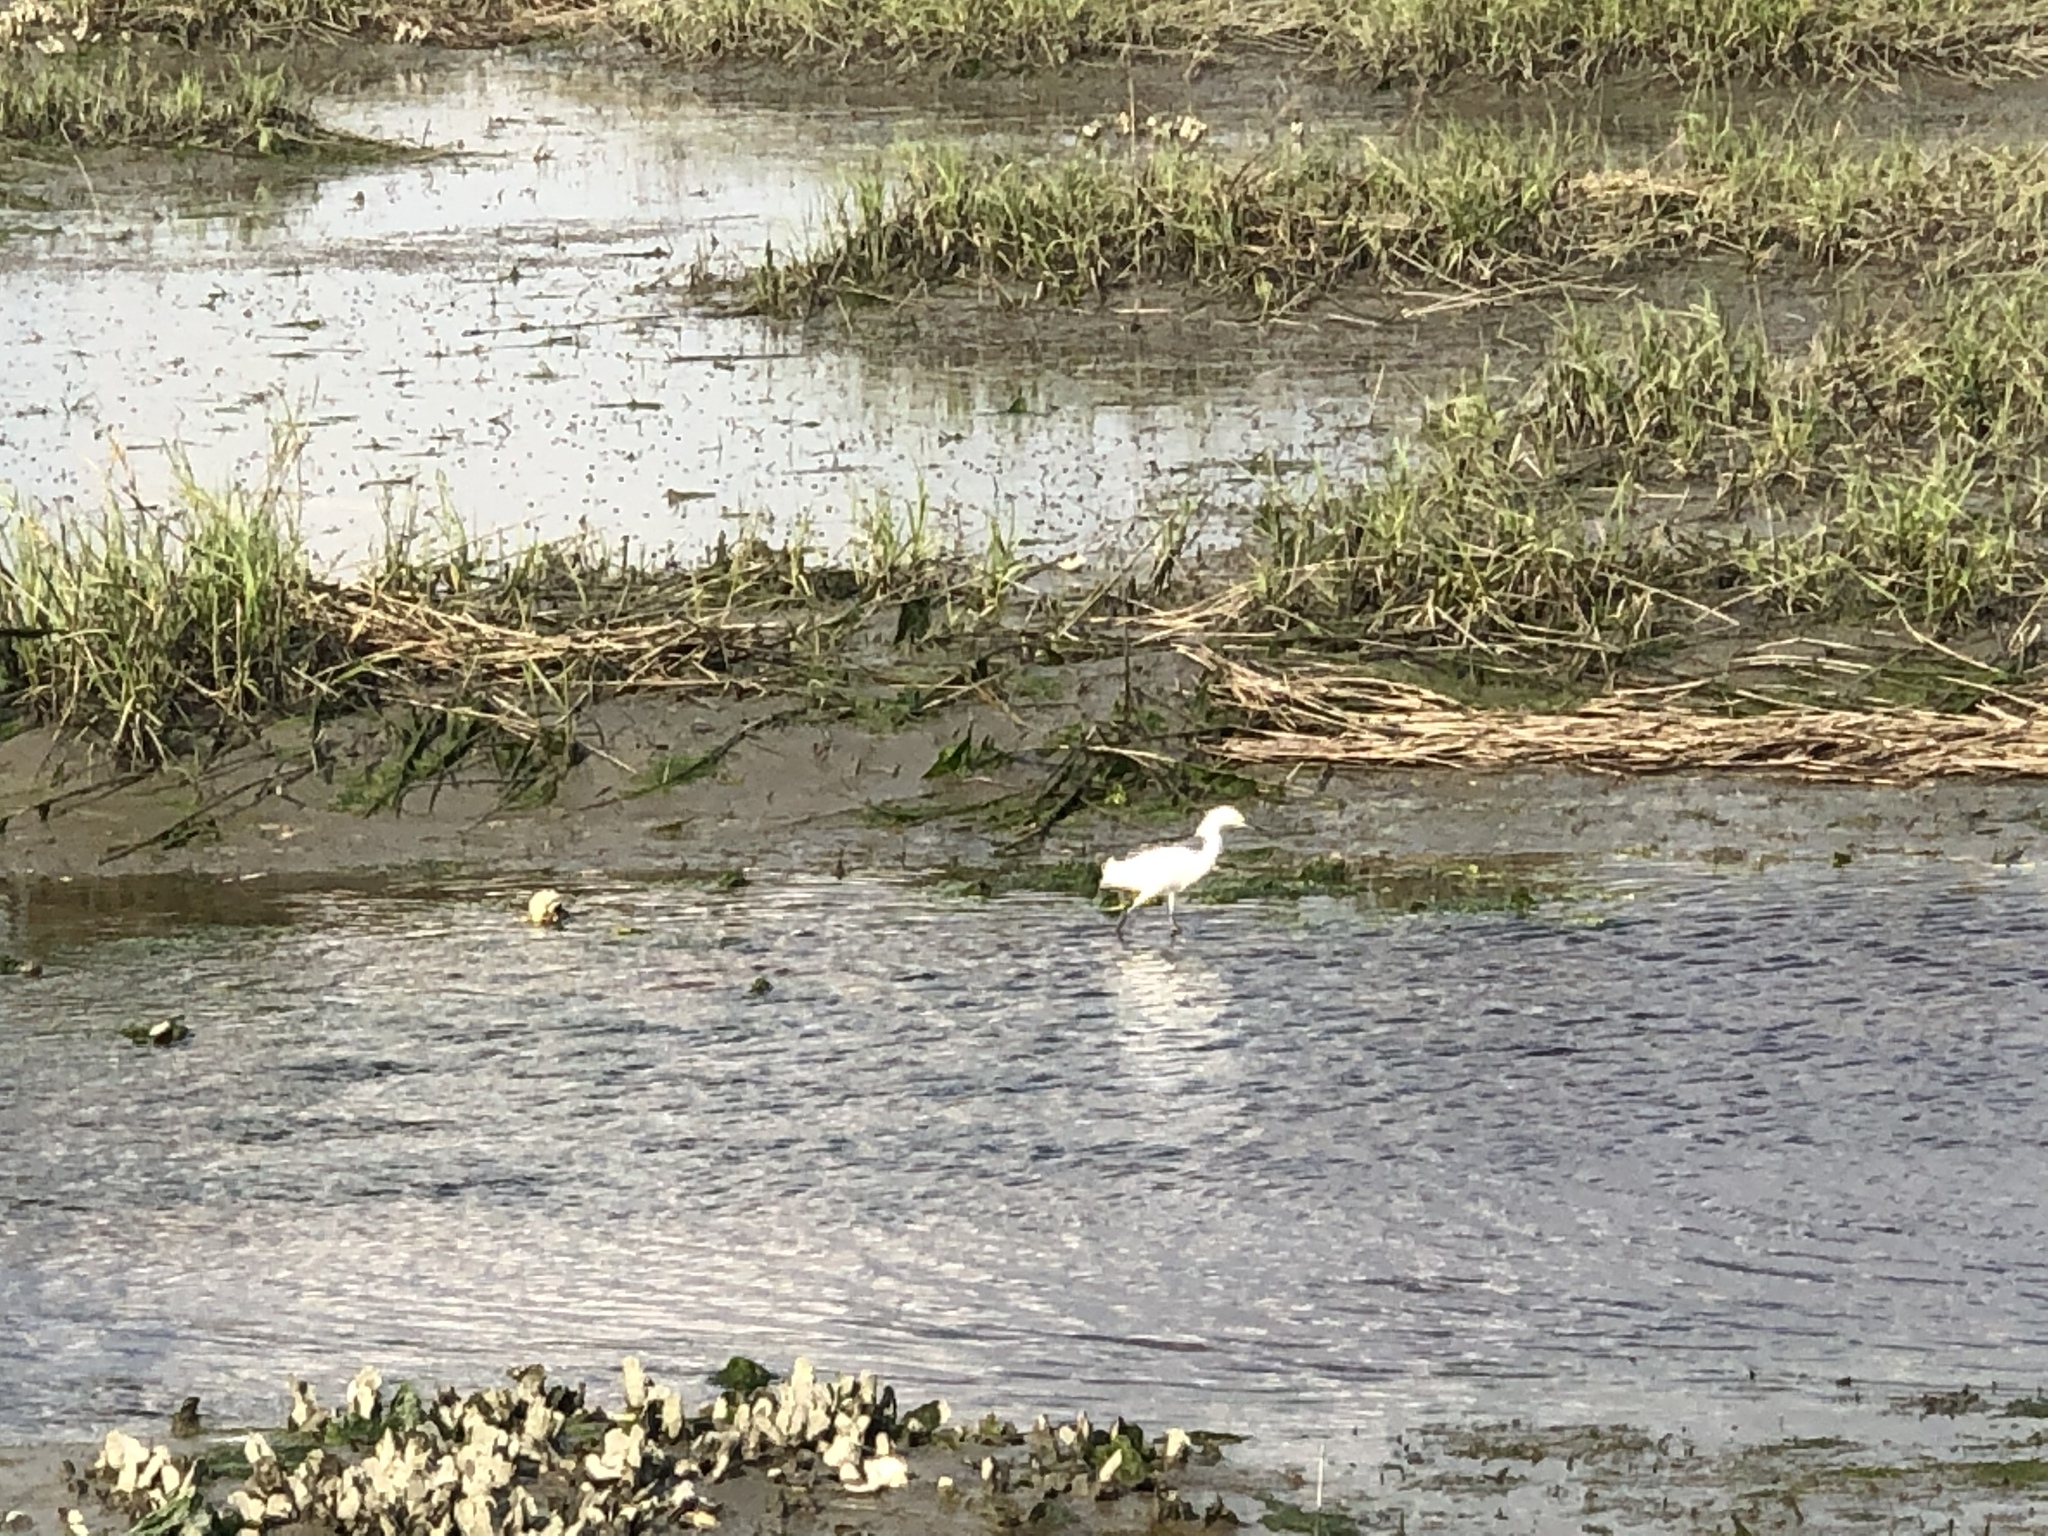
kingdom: Animalia
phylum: Chordata
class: Aves
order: Pelecaniformes
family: Ardeidae
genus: Egretta
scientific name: Egretta thula
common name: Snowy egret
